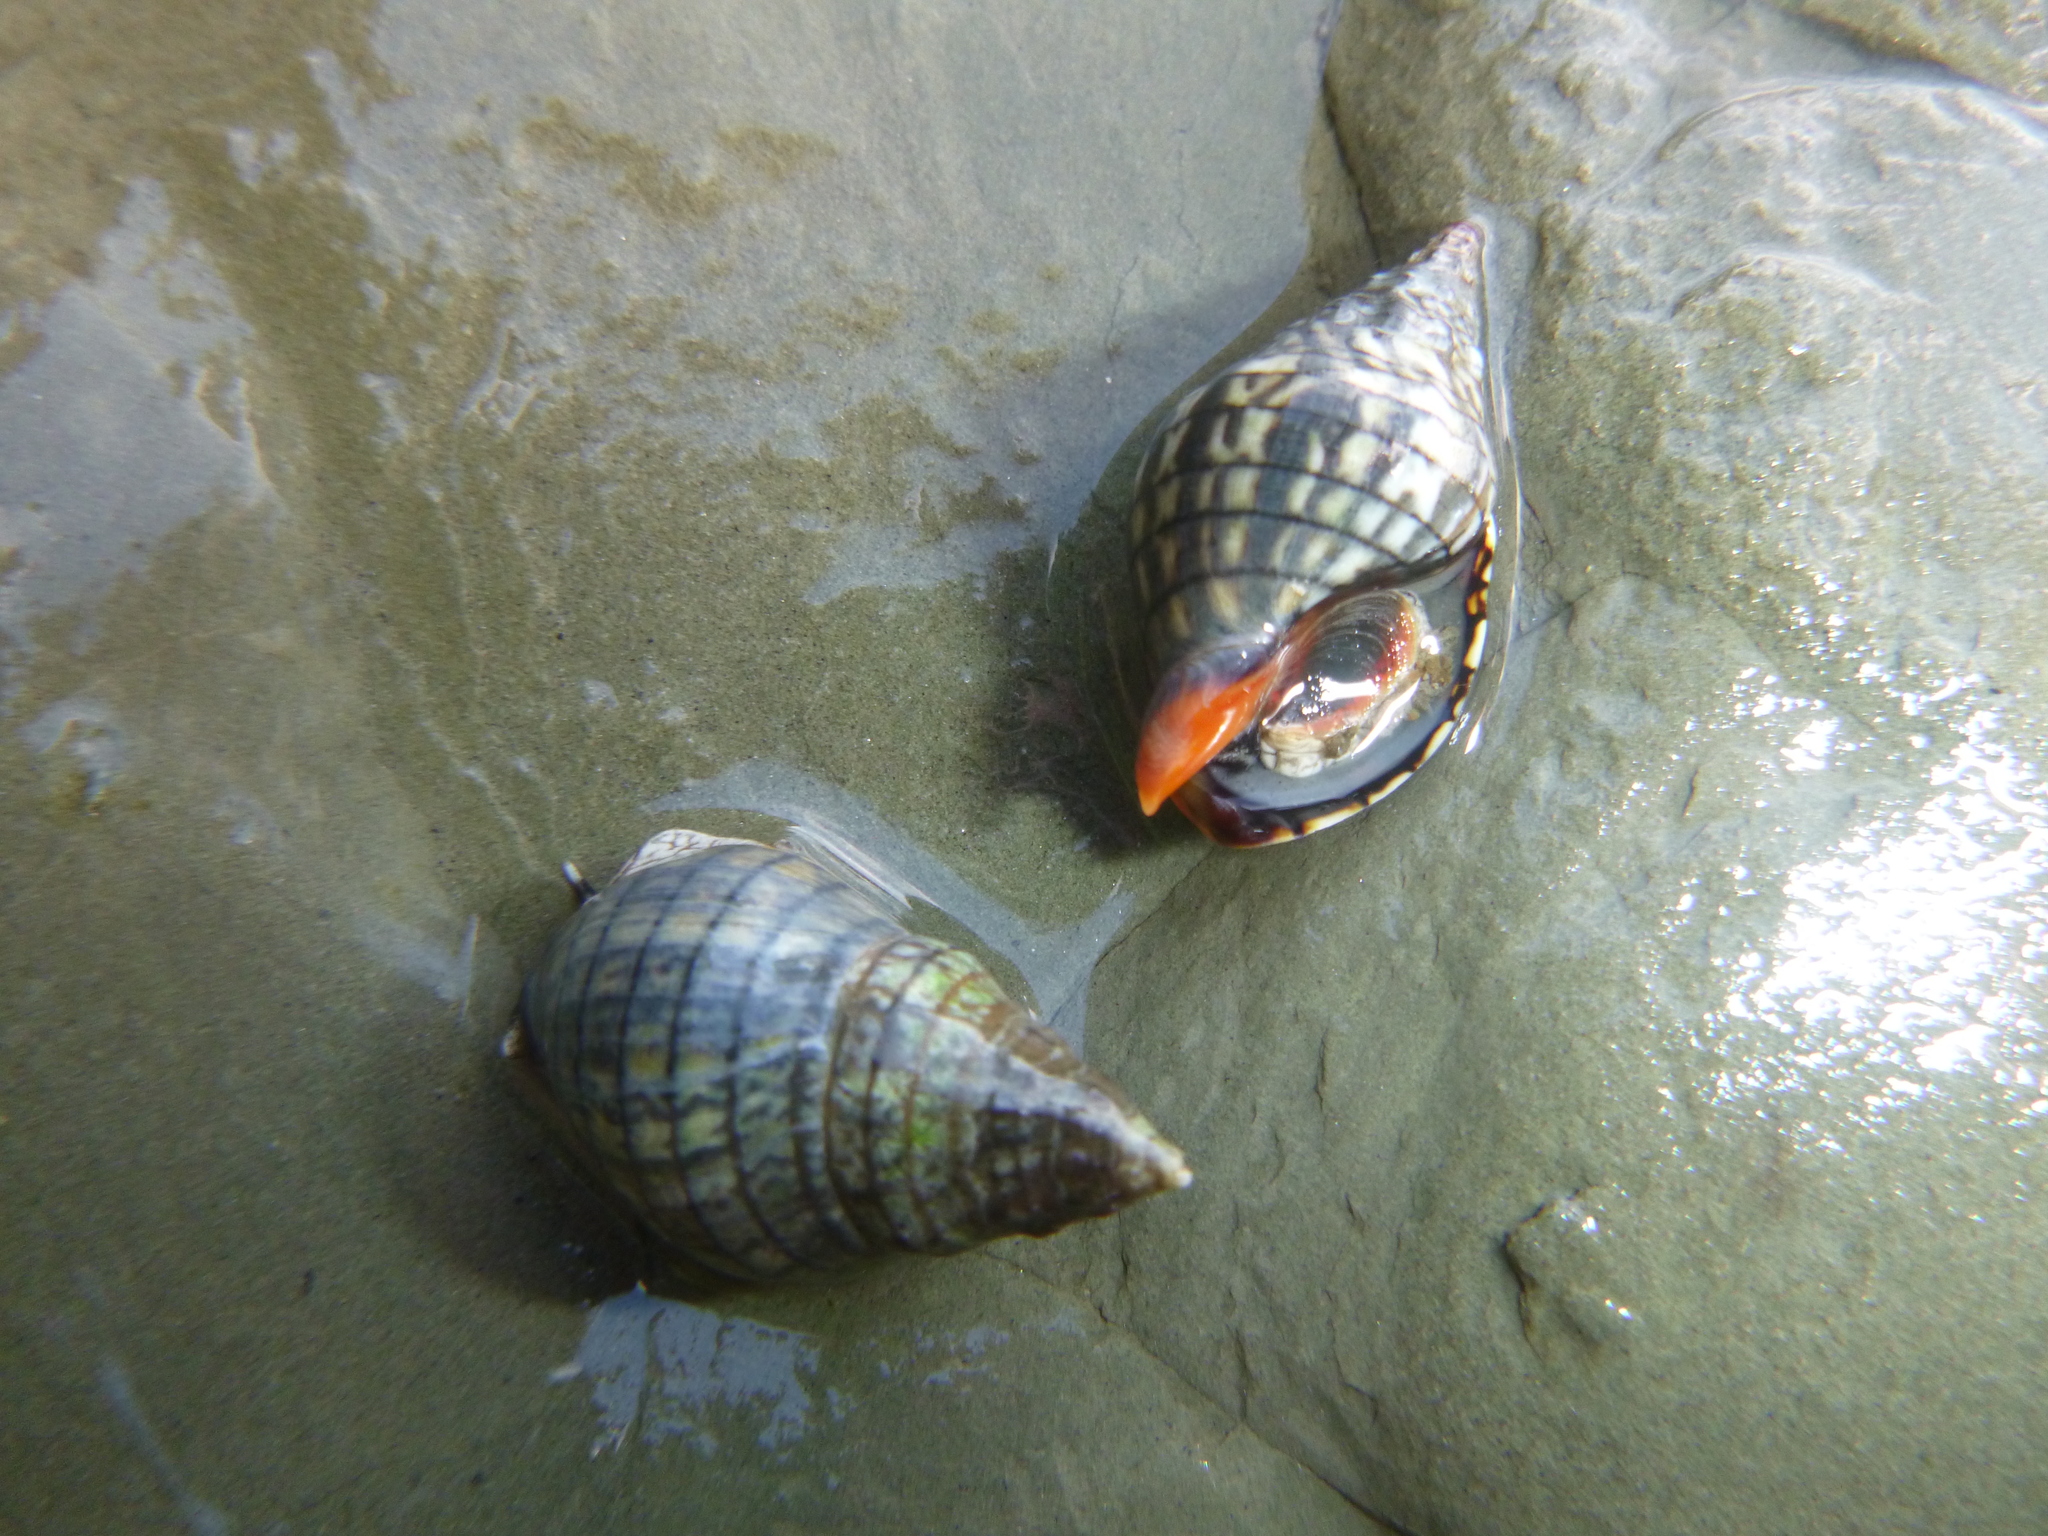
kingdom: Animalia
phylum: Mollusca
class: Gastropoda
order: Neogastropoda
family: Cominellidae
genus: Cominella
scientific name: Cominella virgata
